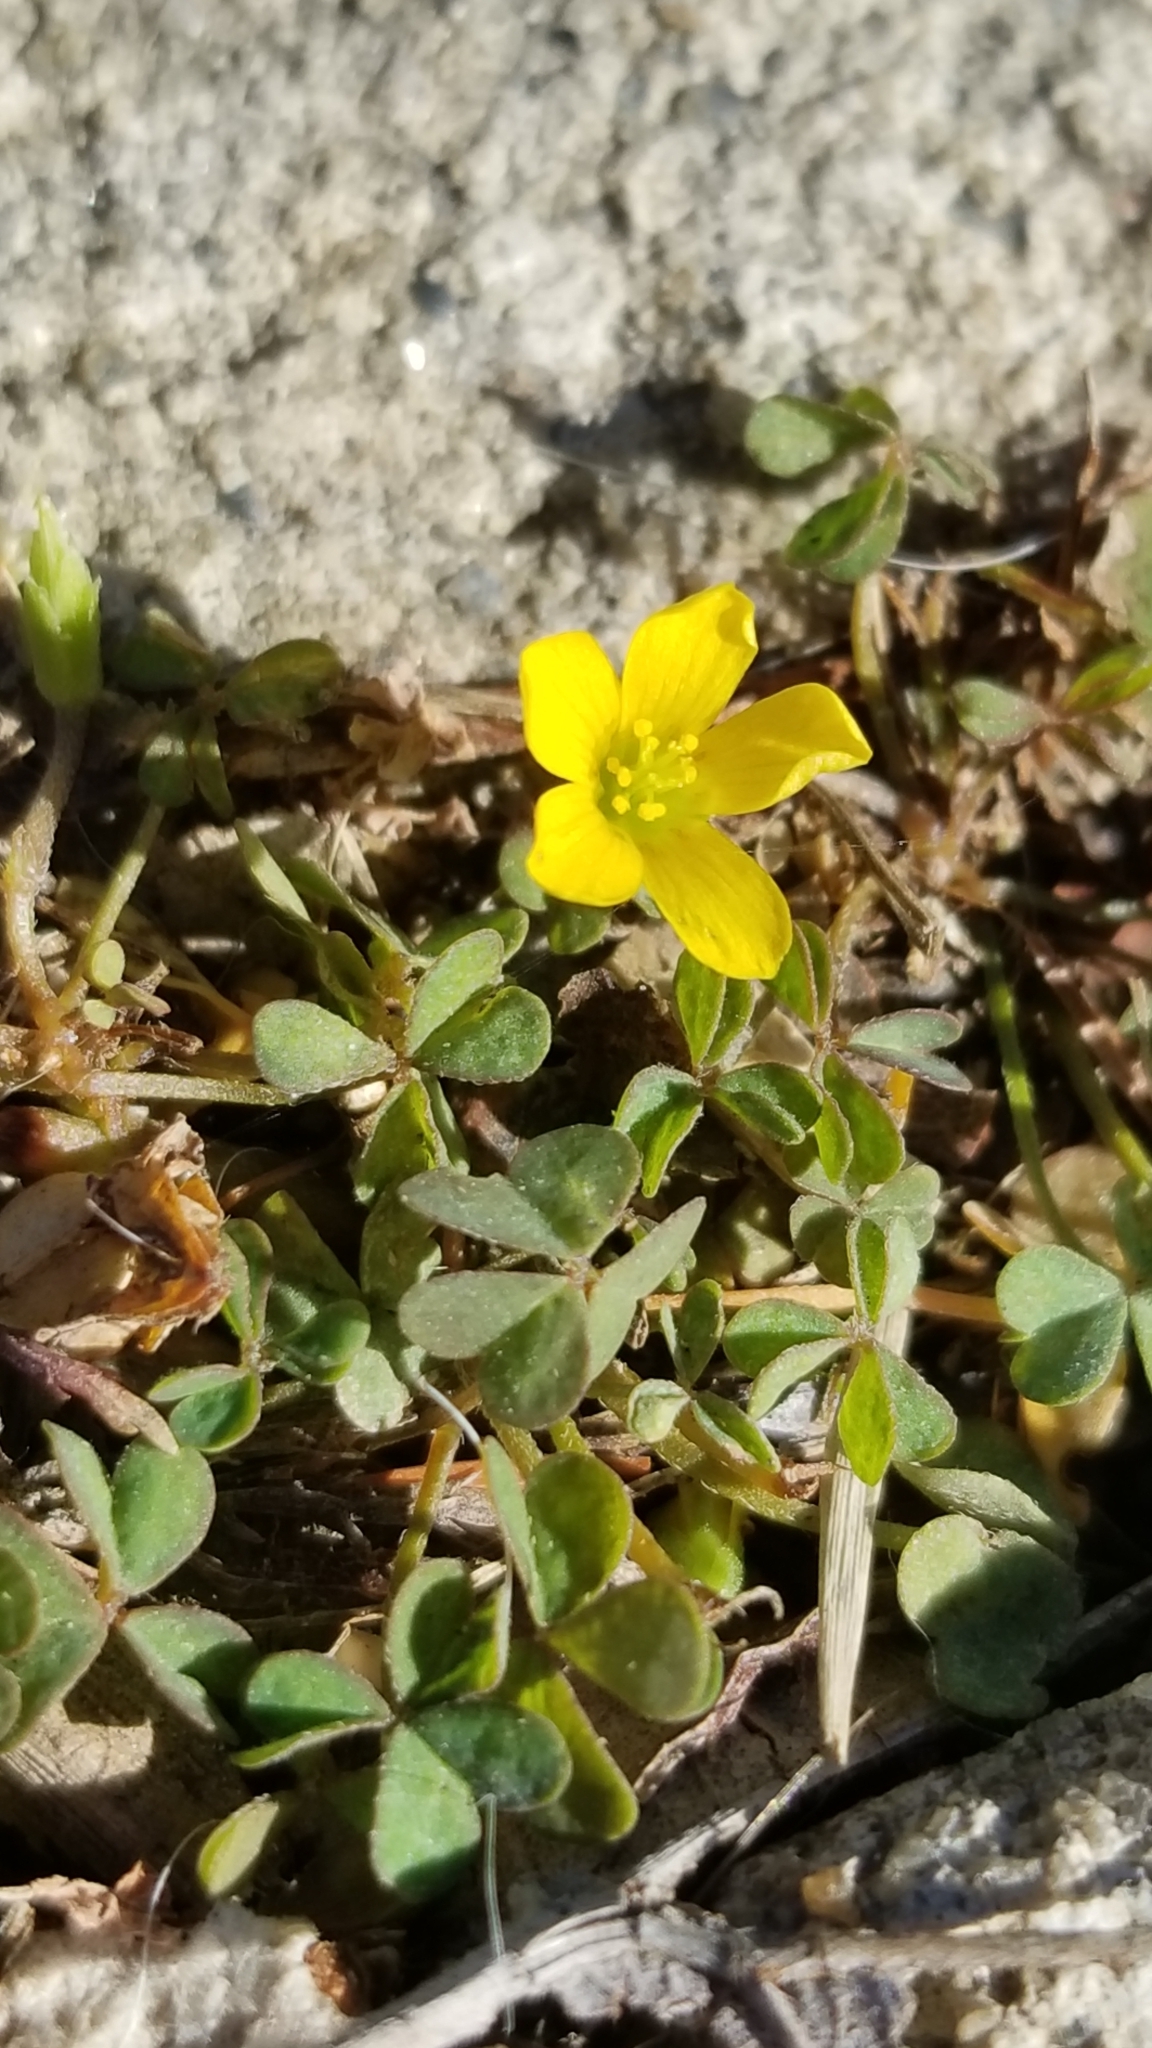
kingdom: Plantae
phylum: Tracheophyta
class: Magnoliopsida
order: Oxalidales
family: Oxalidaceae
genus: Oxalis
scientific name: Oxalis corniculata
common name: Procumbent yellow-sorrel
